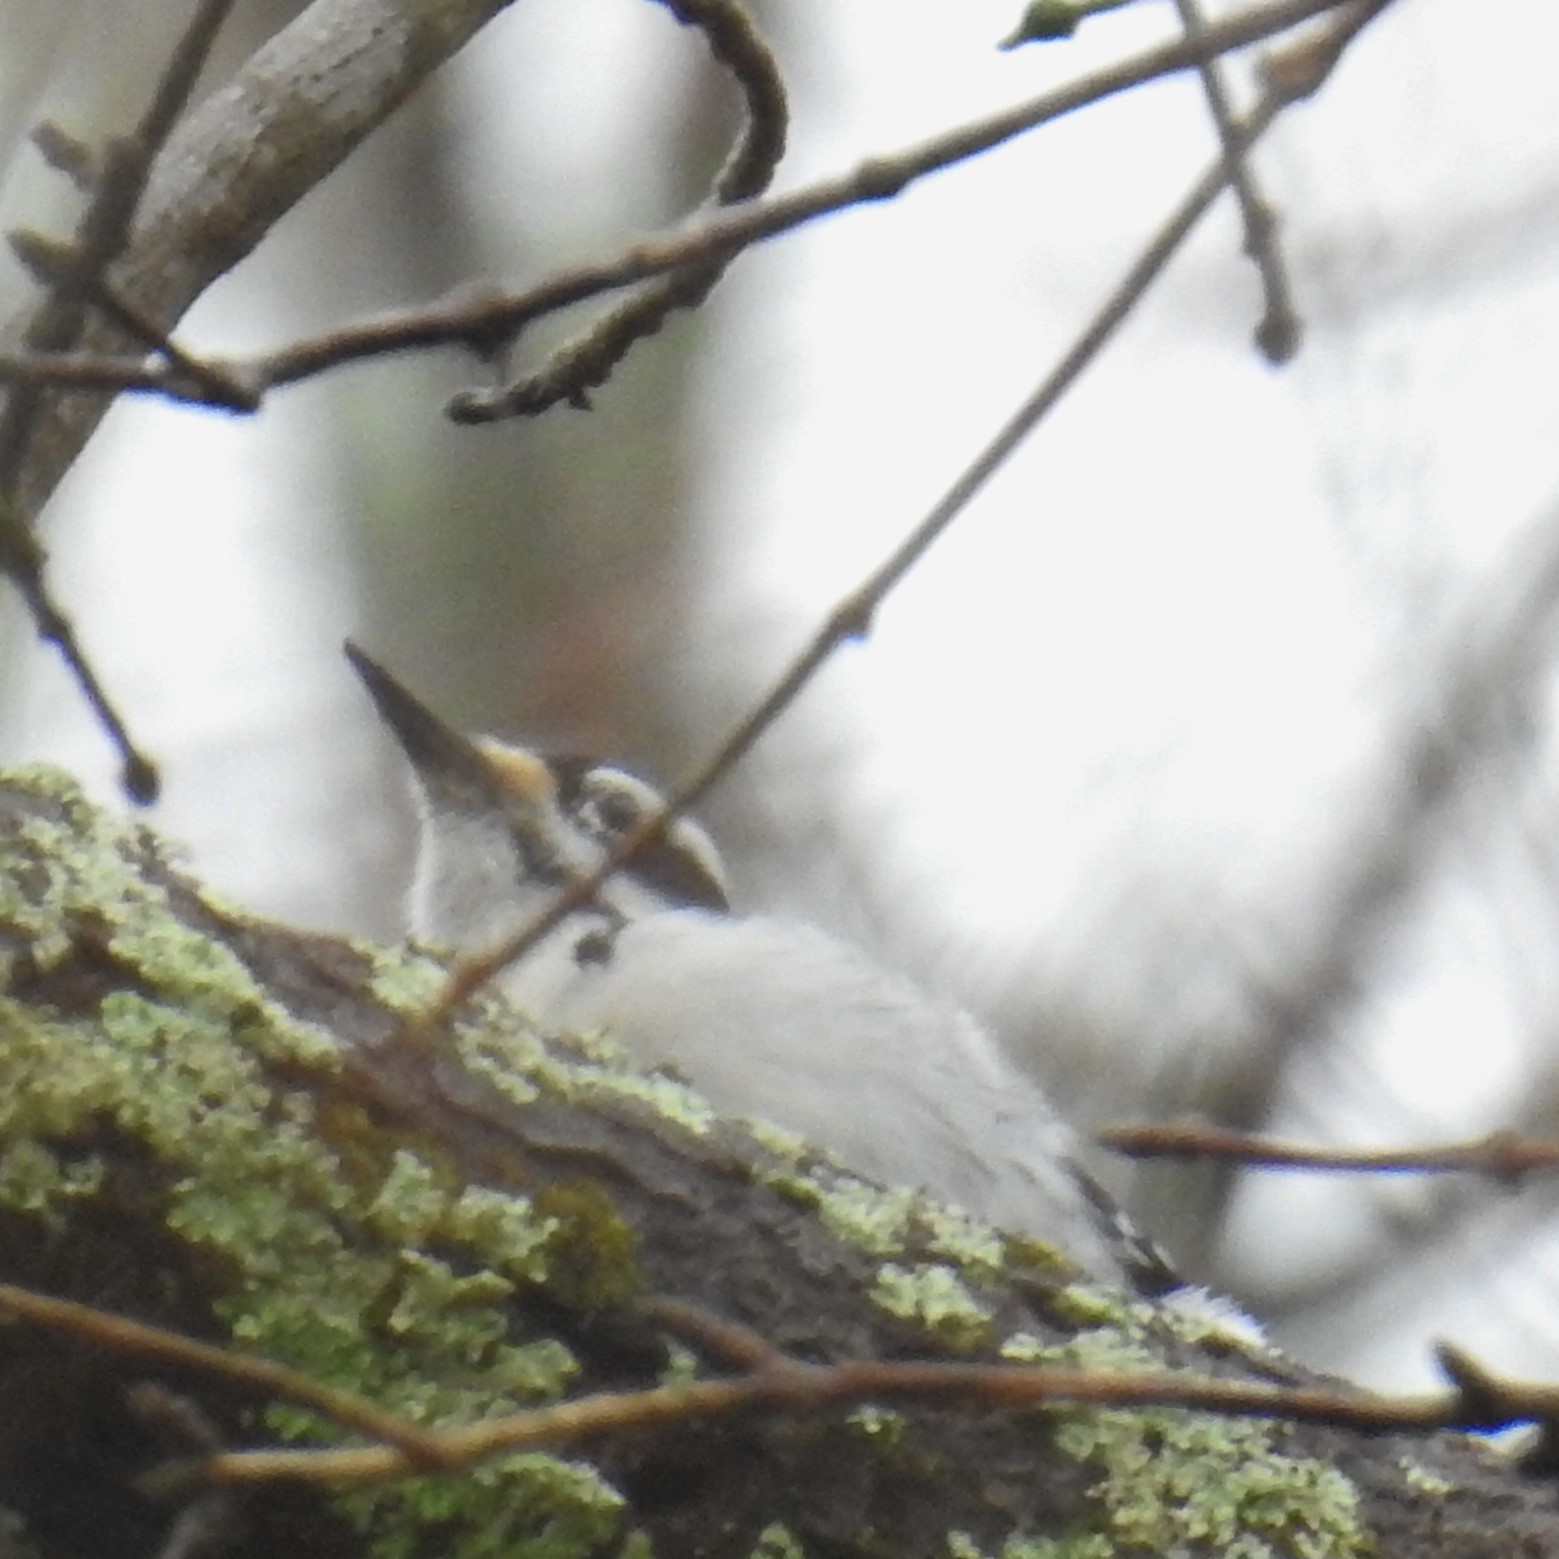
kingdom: Animalia
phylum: Chordata
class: Aves
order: Piciformes
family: Picidae
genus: Leuconotopicus
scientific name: Leuconotopicus villosus
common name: Hairy woodpecker
